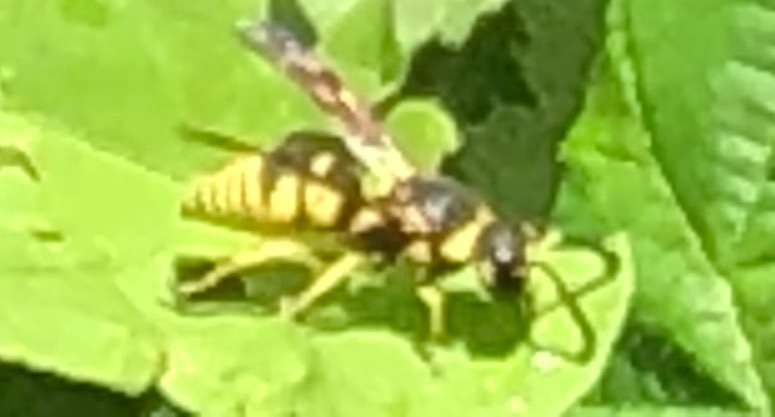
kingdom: Animalia
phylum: Arthropoda
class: Insecta
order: Hymenoptera
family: Eumenidae
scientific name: Eumenidae
